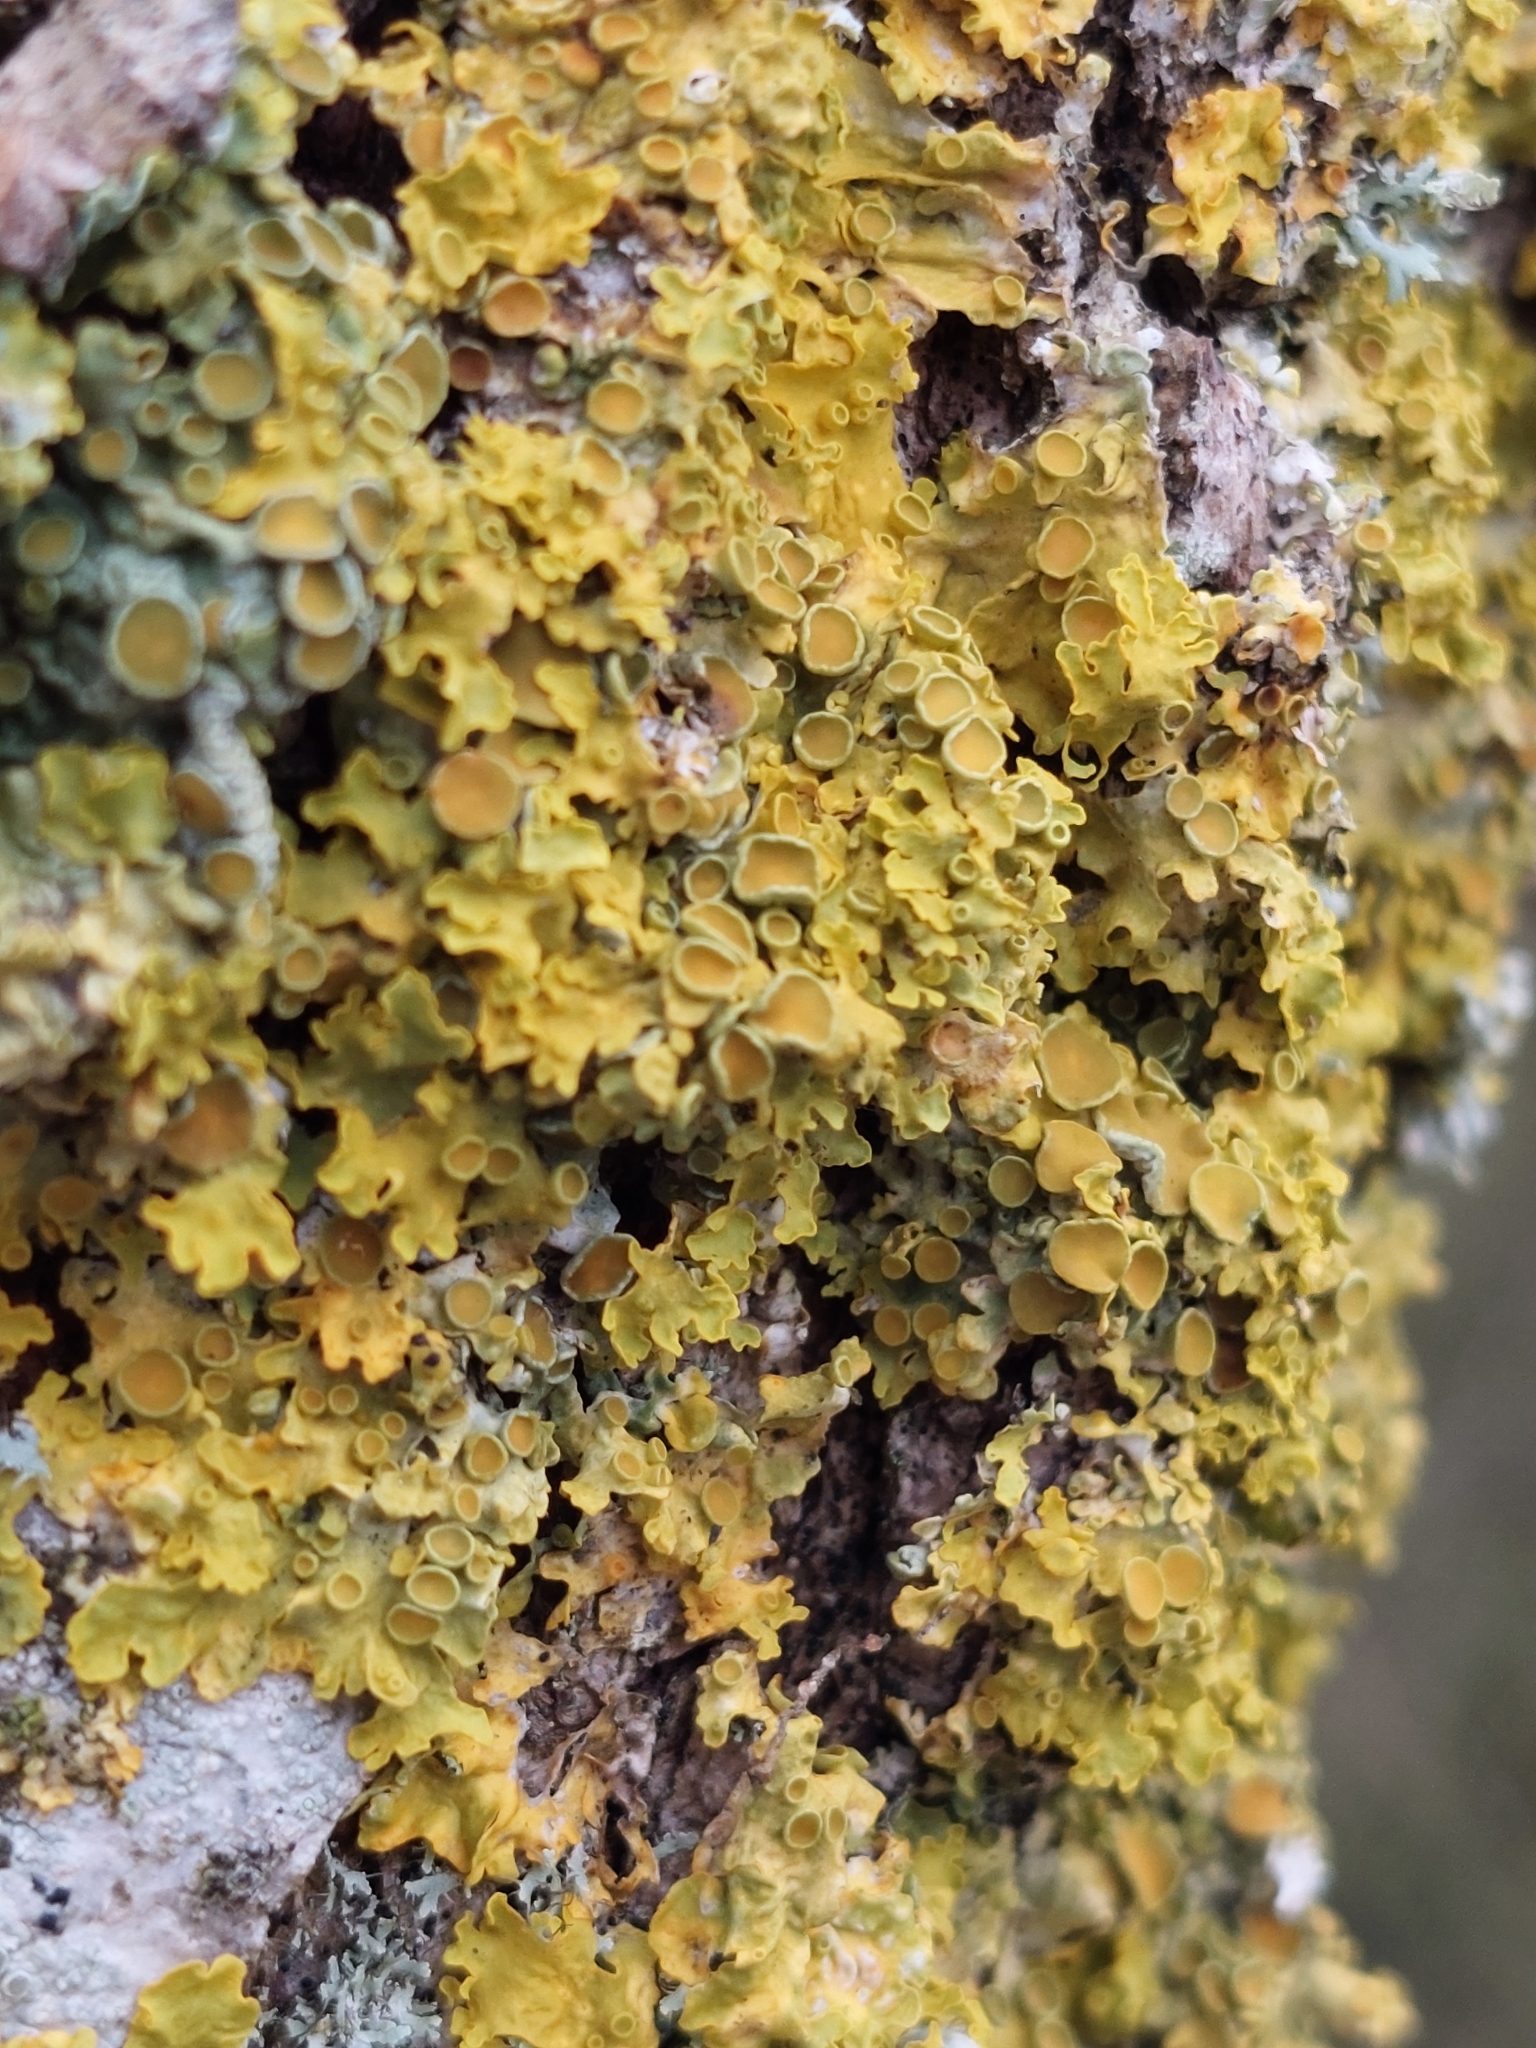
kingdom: Fungi
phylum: Ascomycota
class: Lecanoromycetes
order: Teloschistales
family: Teloschistaceae
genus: Xanthoria
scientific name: Xanthoria parietina
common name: Common orange lichen
